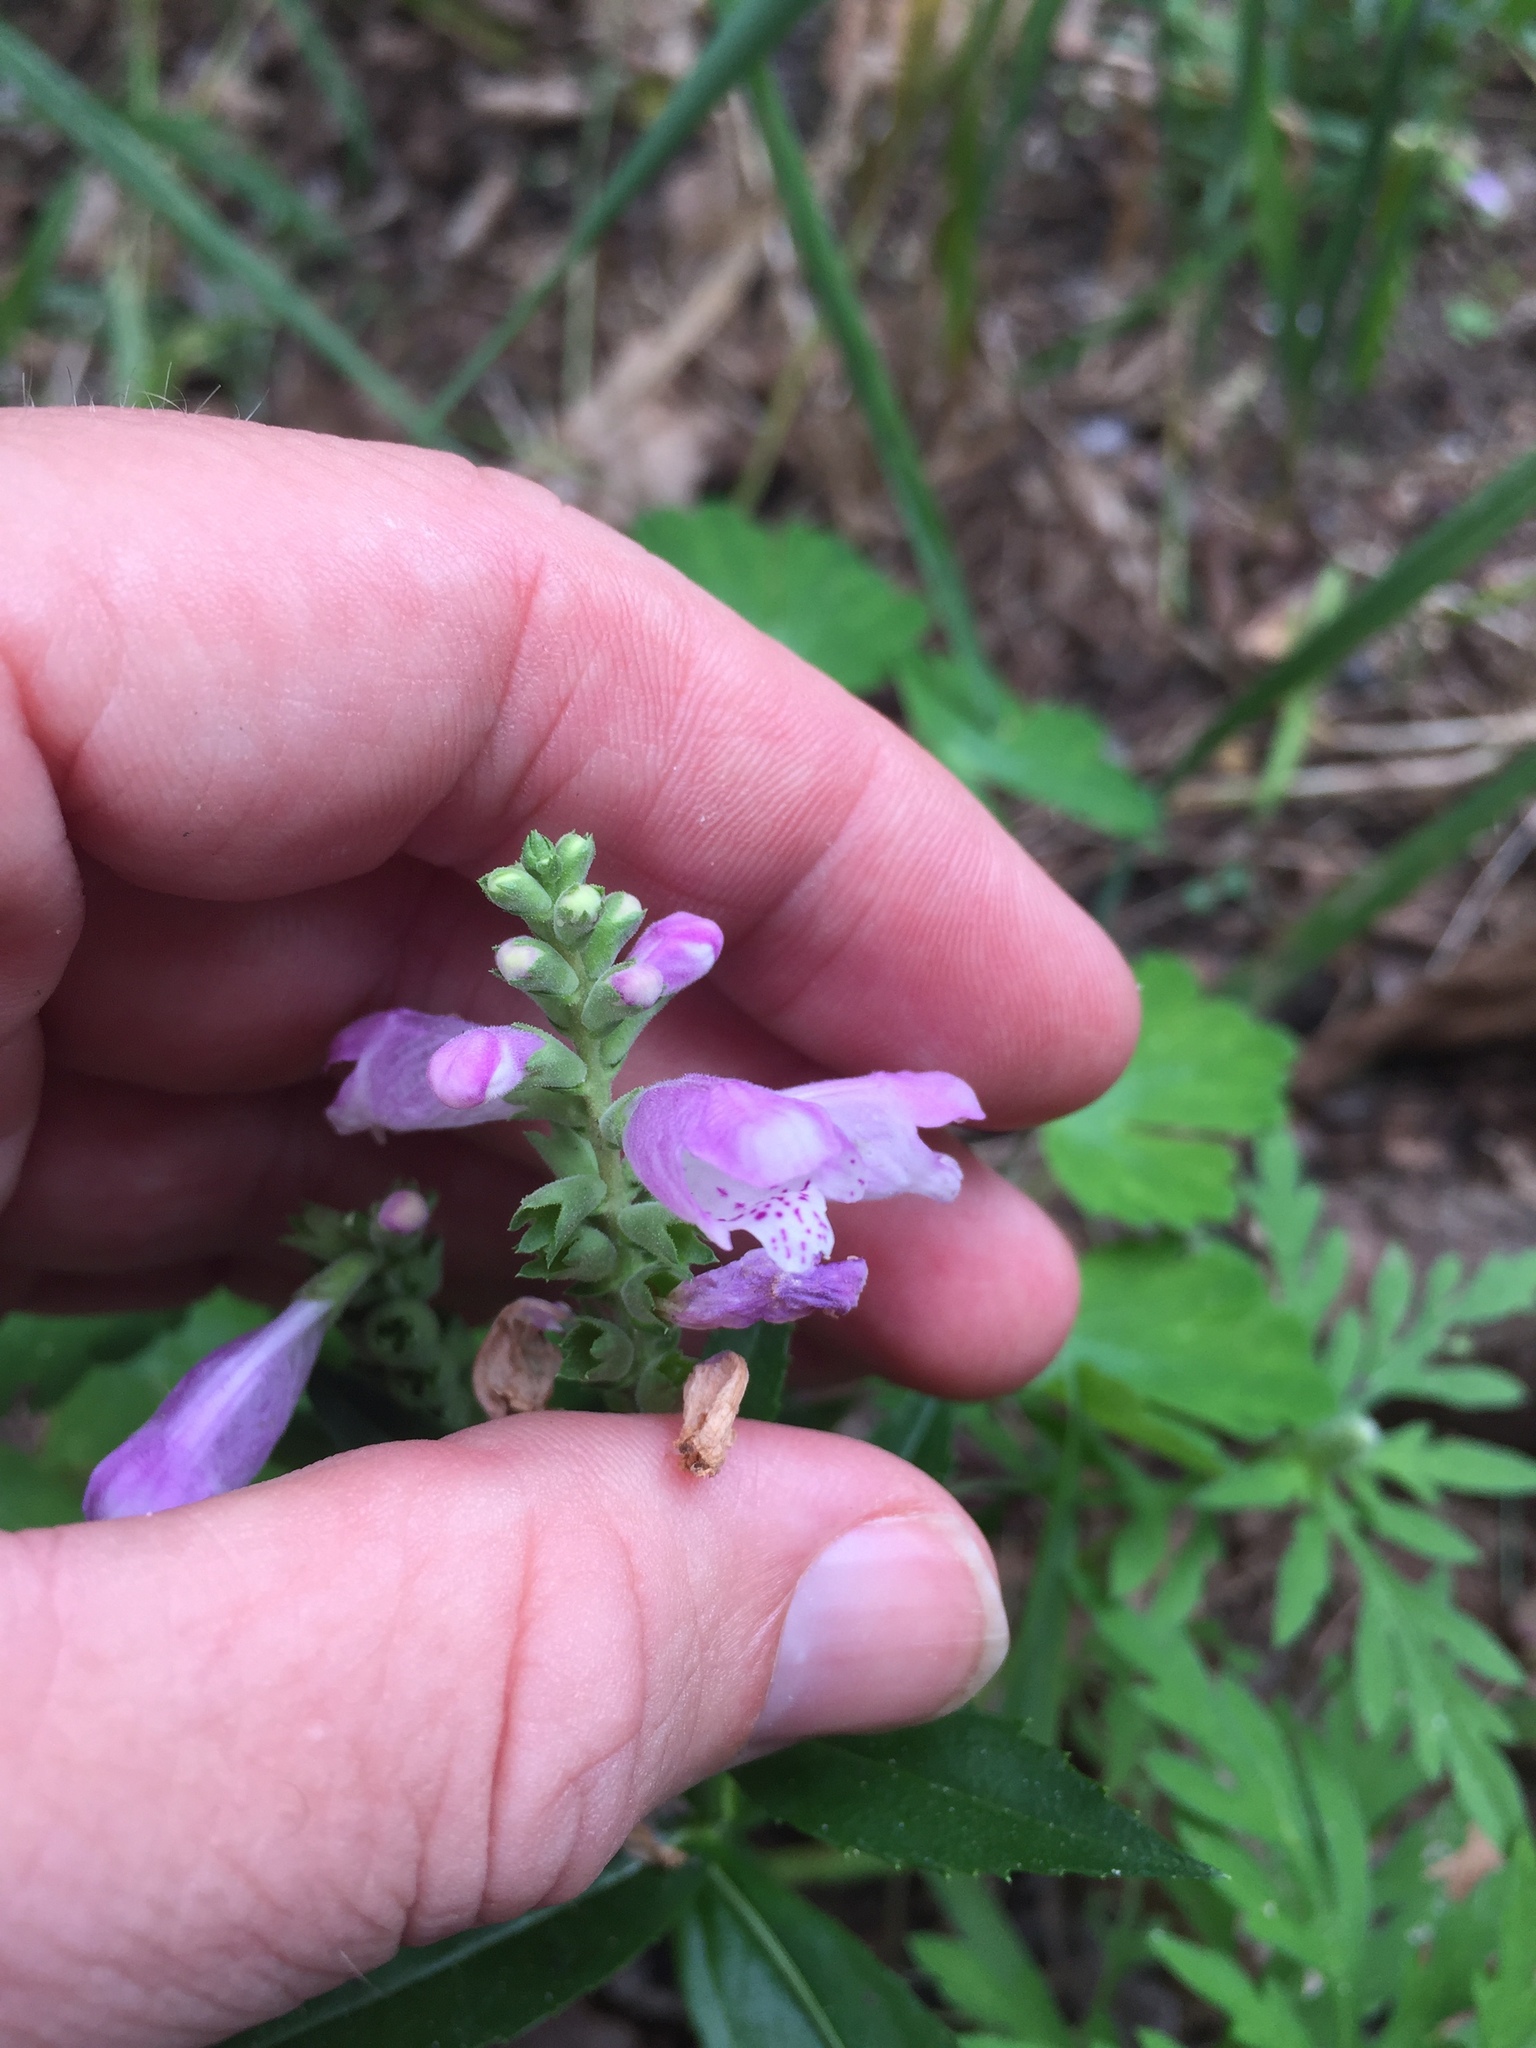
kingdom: Plantae
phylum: Tracheophyta
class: Magnoliopsida
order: Lamiales
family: Lamiaceae
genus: Physostegia
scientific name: Physostegia virginiana
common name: Obedient-plant
